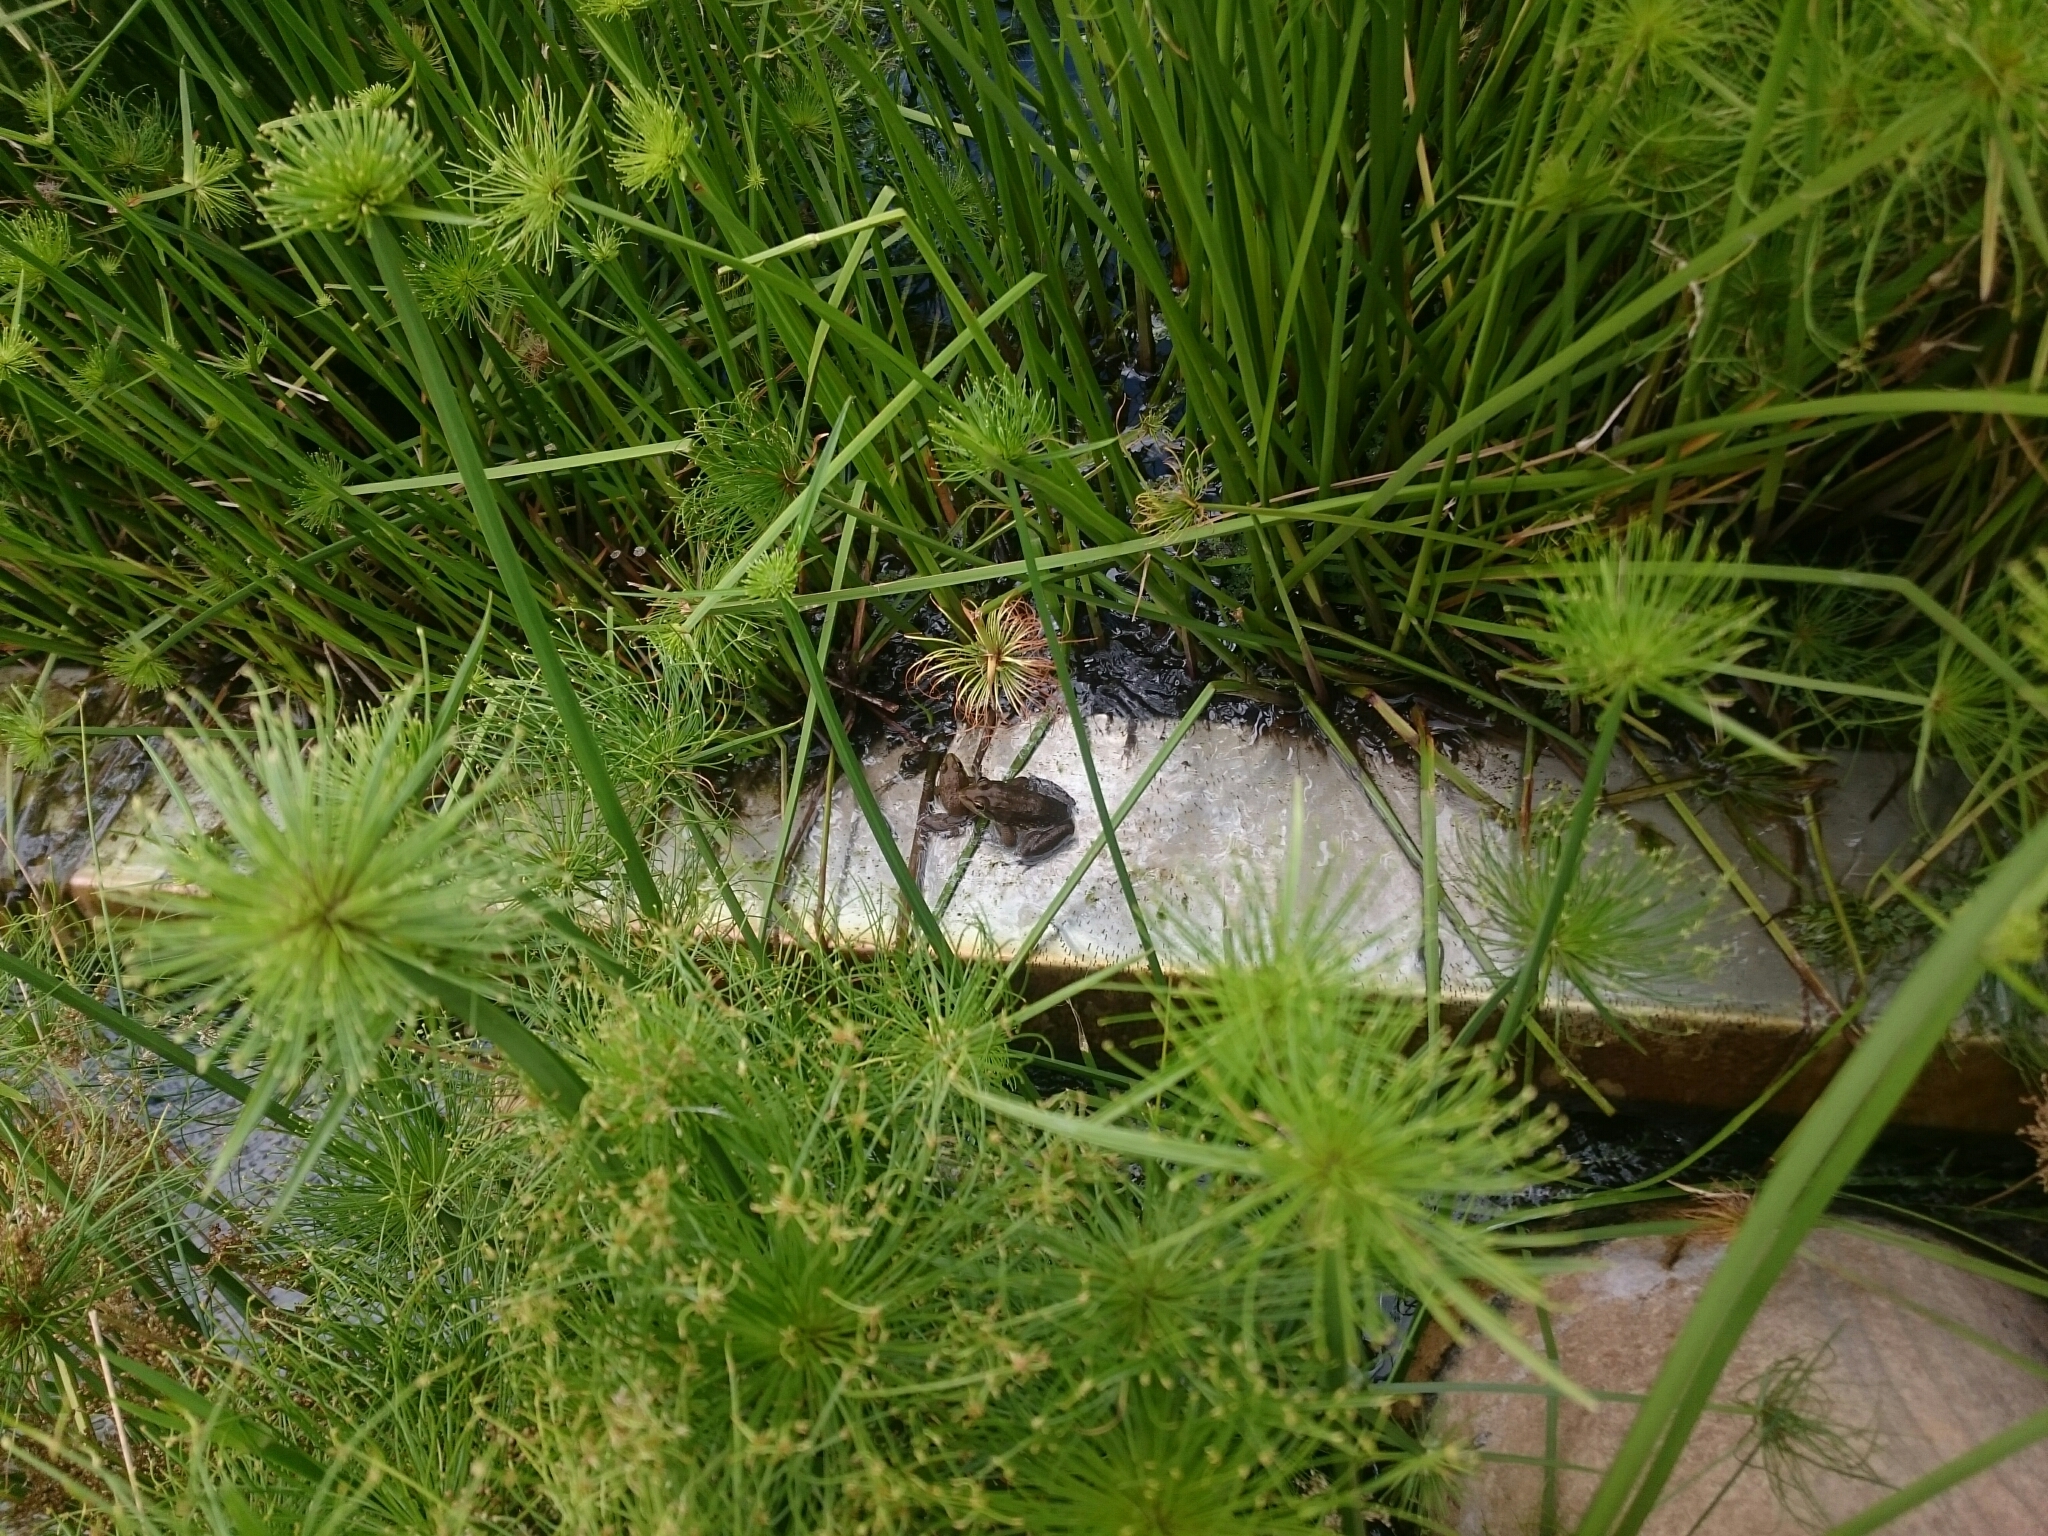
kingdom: Animalia
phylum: Chordata
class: Amphibia
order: Anura
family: Pyxicephalidae
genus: Amietia
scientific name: Amietia fuscigula
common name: Cape rana
